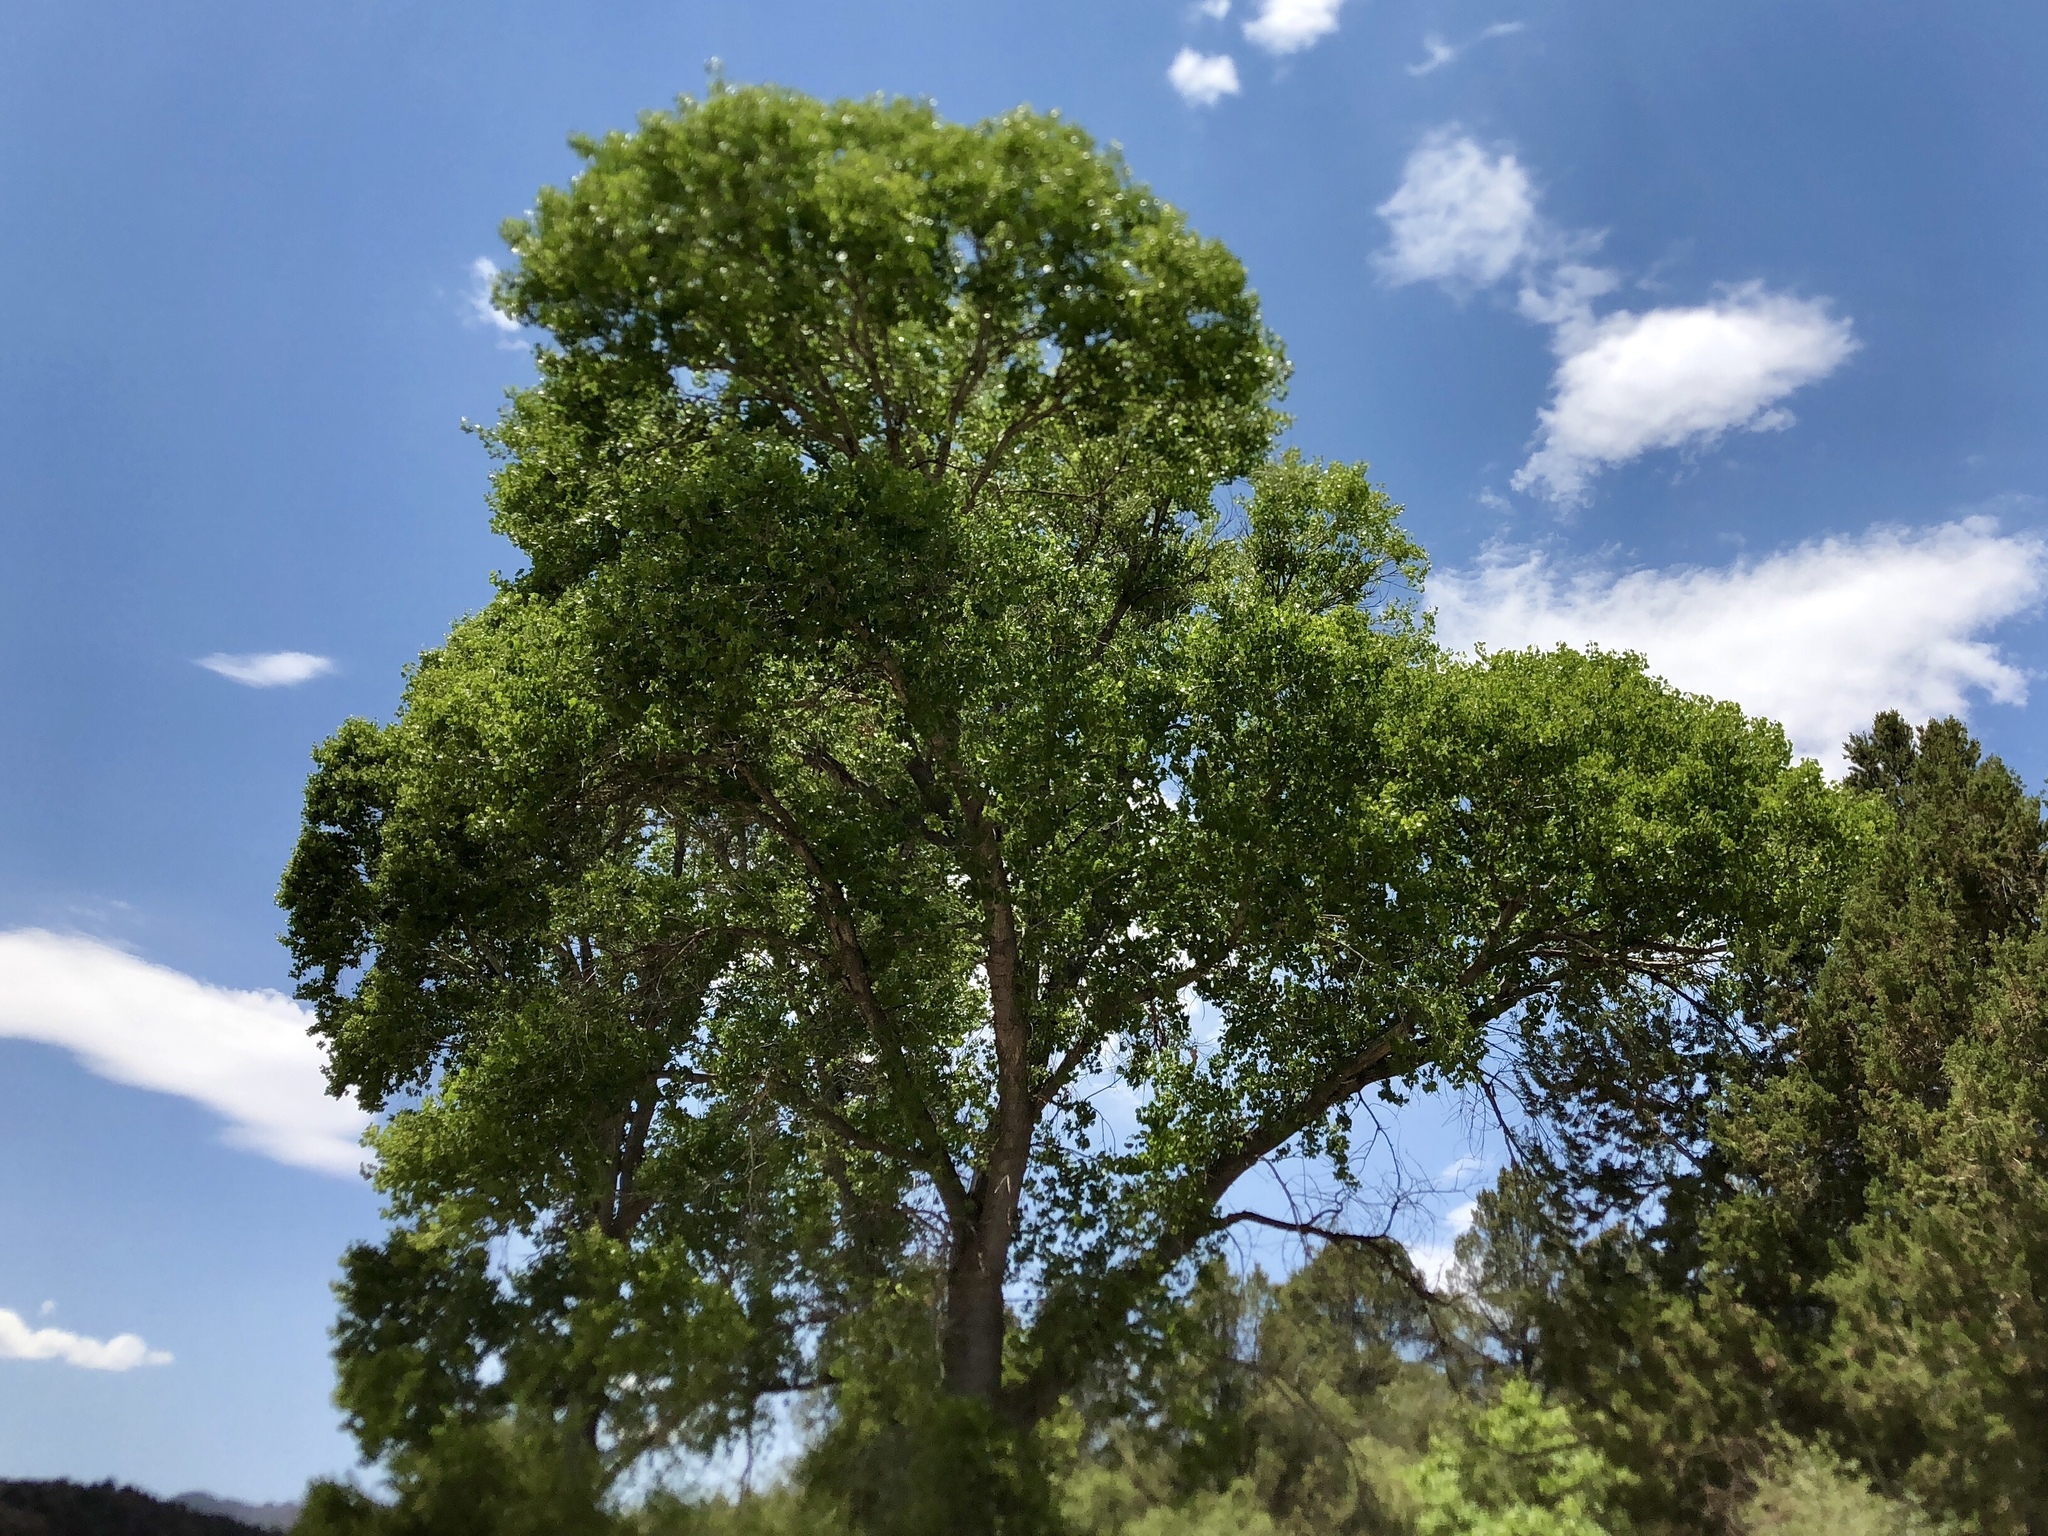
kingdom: Plantae
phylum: Tracheophyta
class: Magnoliopsida
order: Malpighiales
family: Salicaceae
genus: Populus
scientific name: Populus fremontii
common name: Fremont's cottonwood
